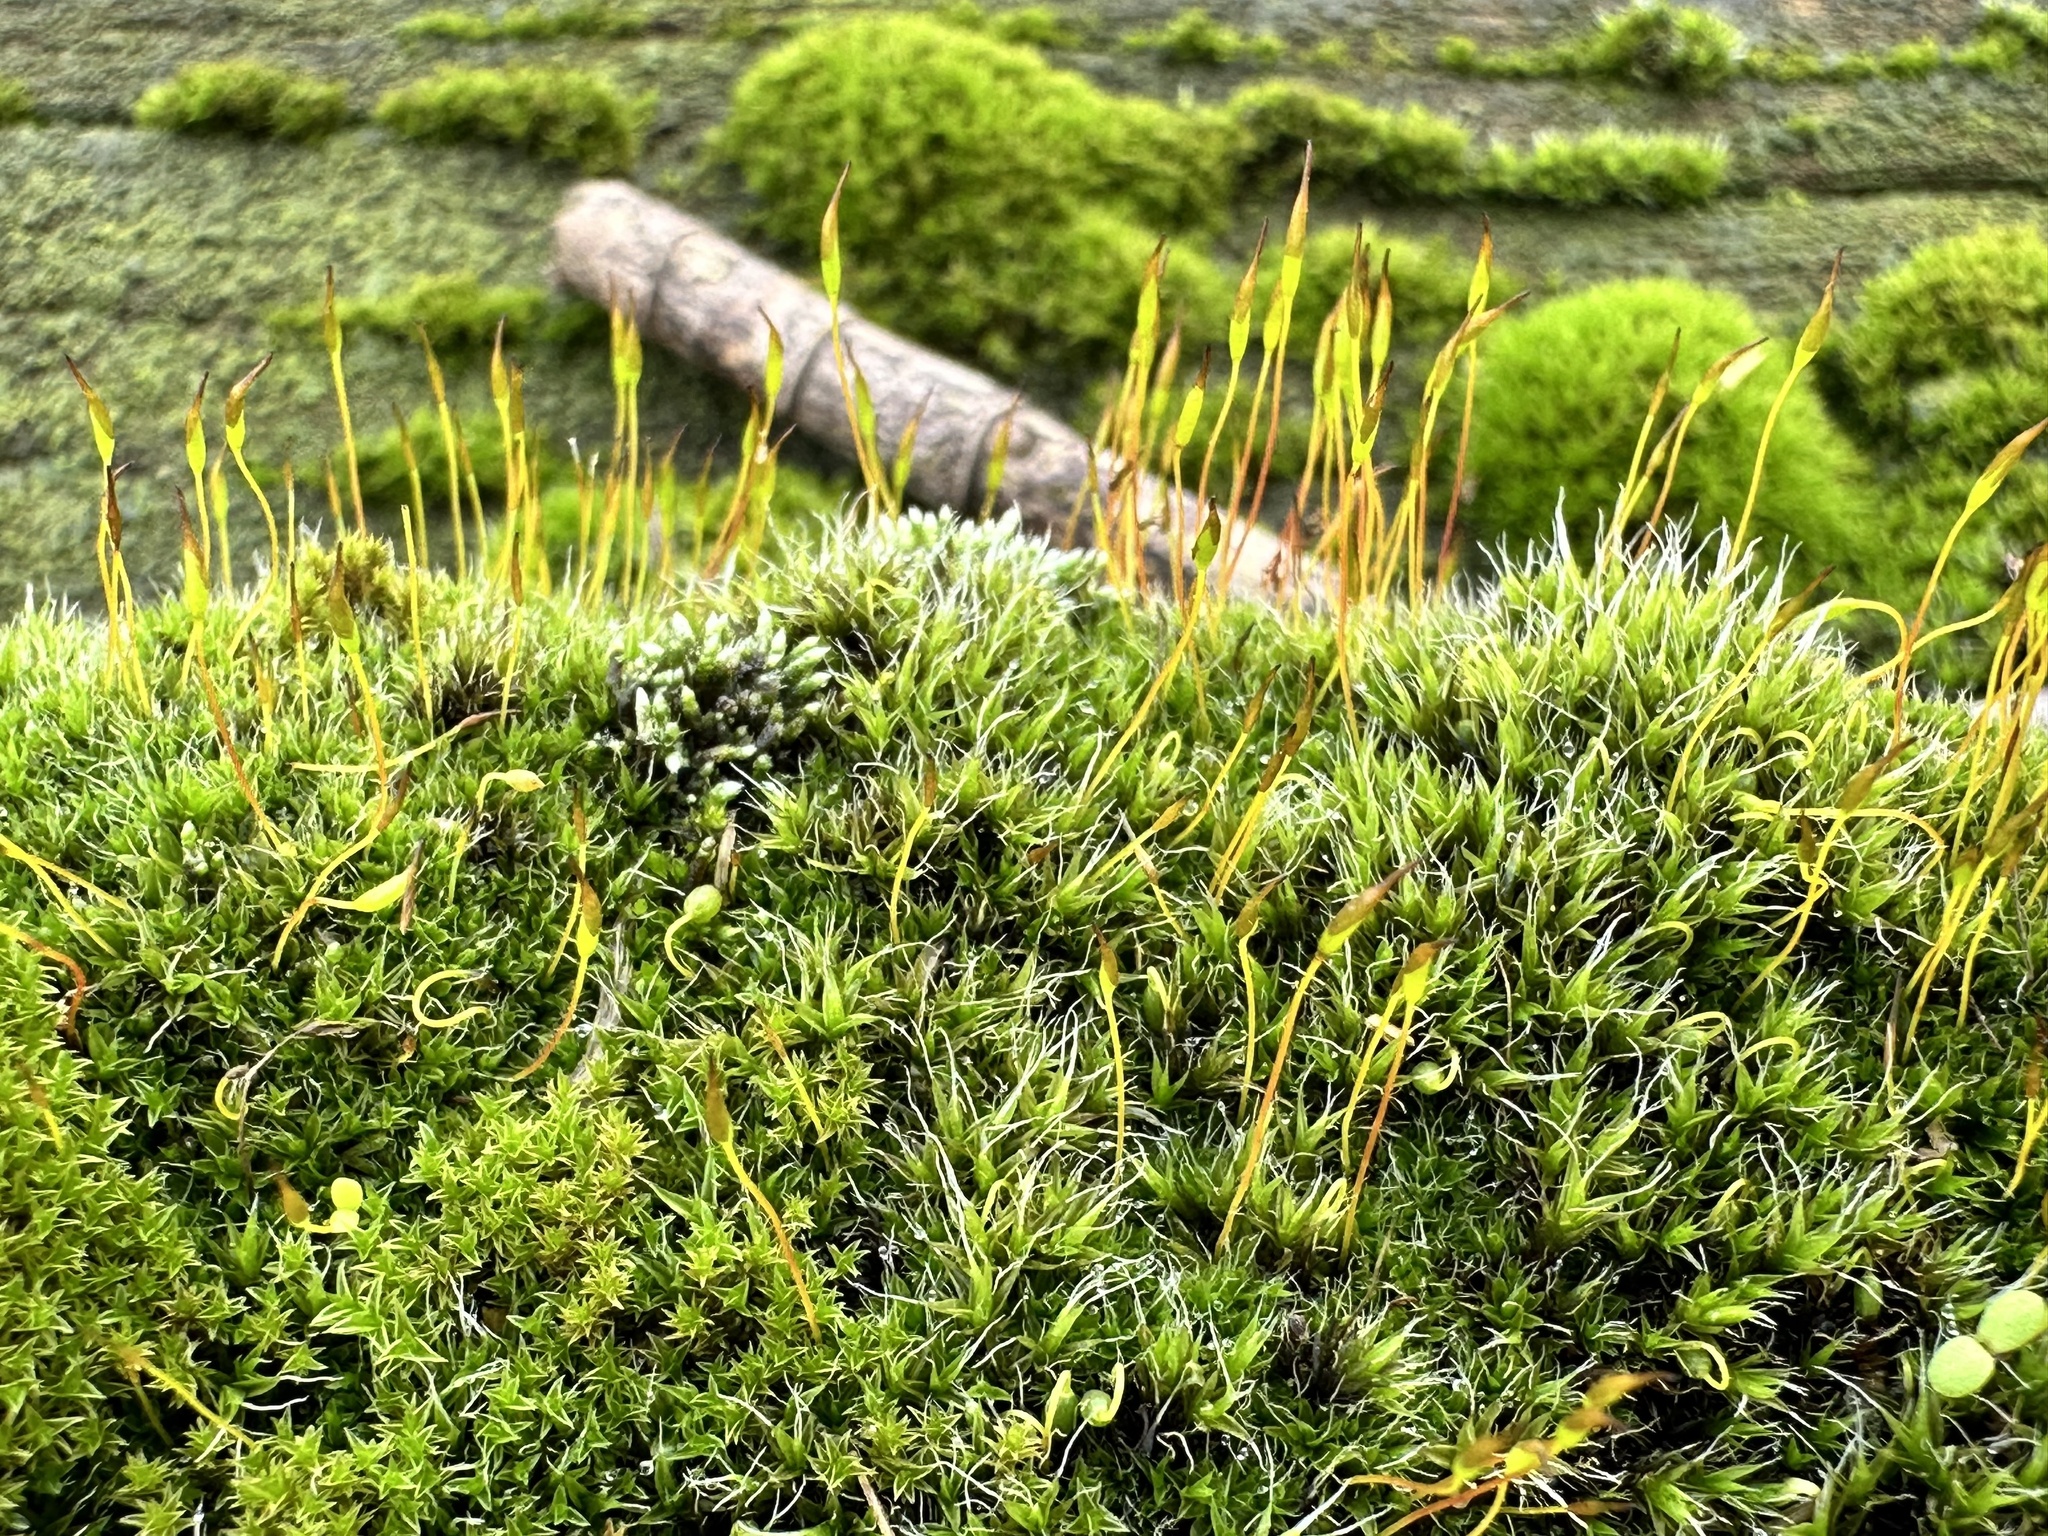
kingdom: Plantae
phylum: Bryophyta
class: Bryopsida
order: Pottiales
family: Pottiaceae
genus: Tortula
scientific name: Tortula muralis
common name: Wall screw-moss
